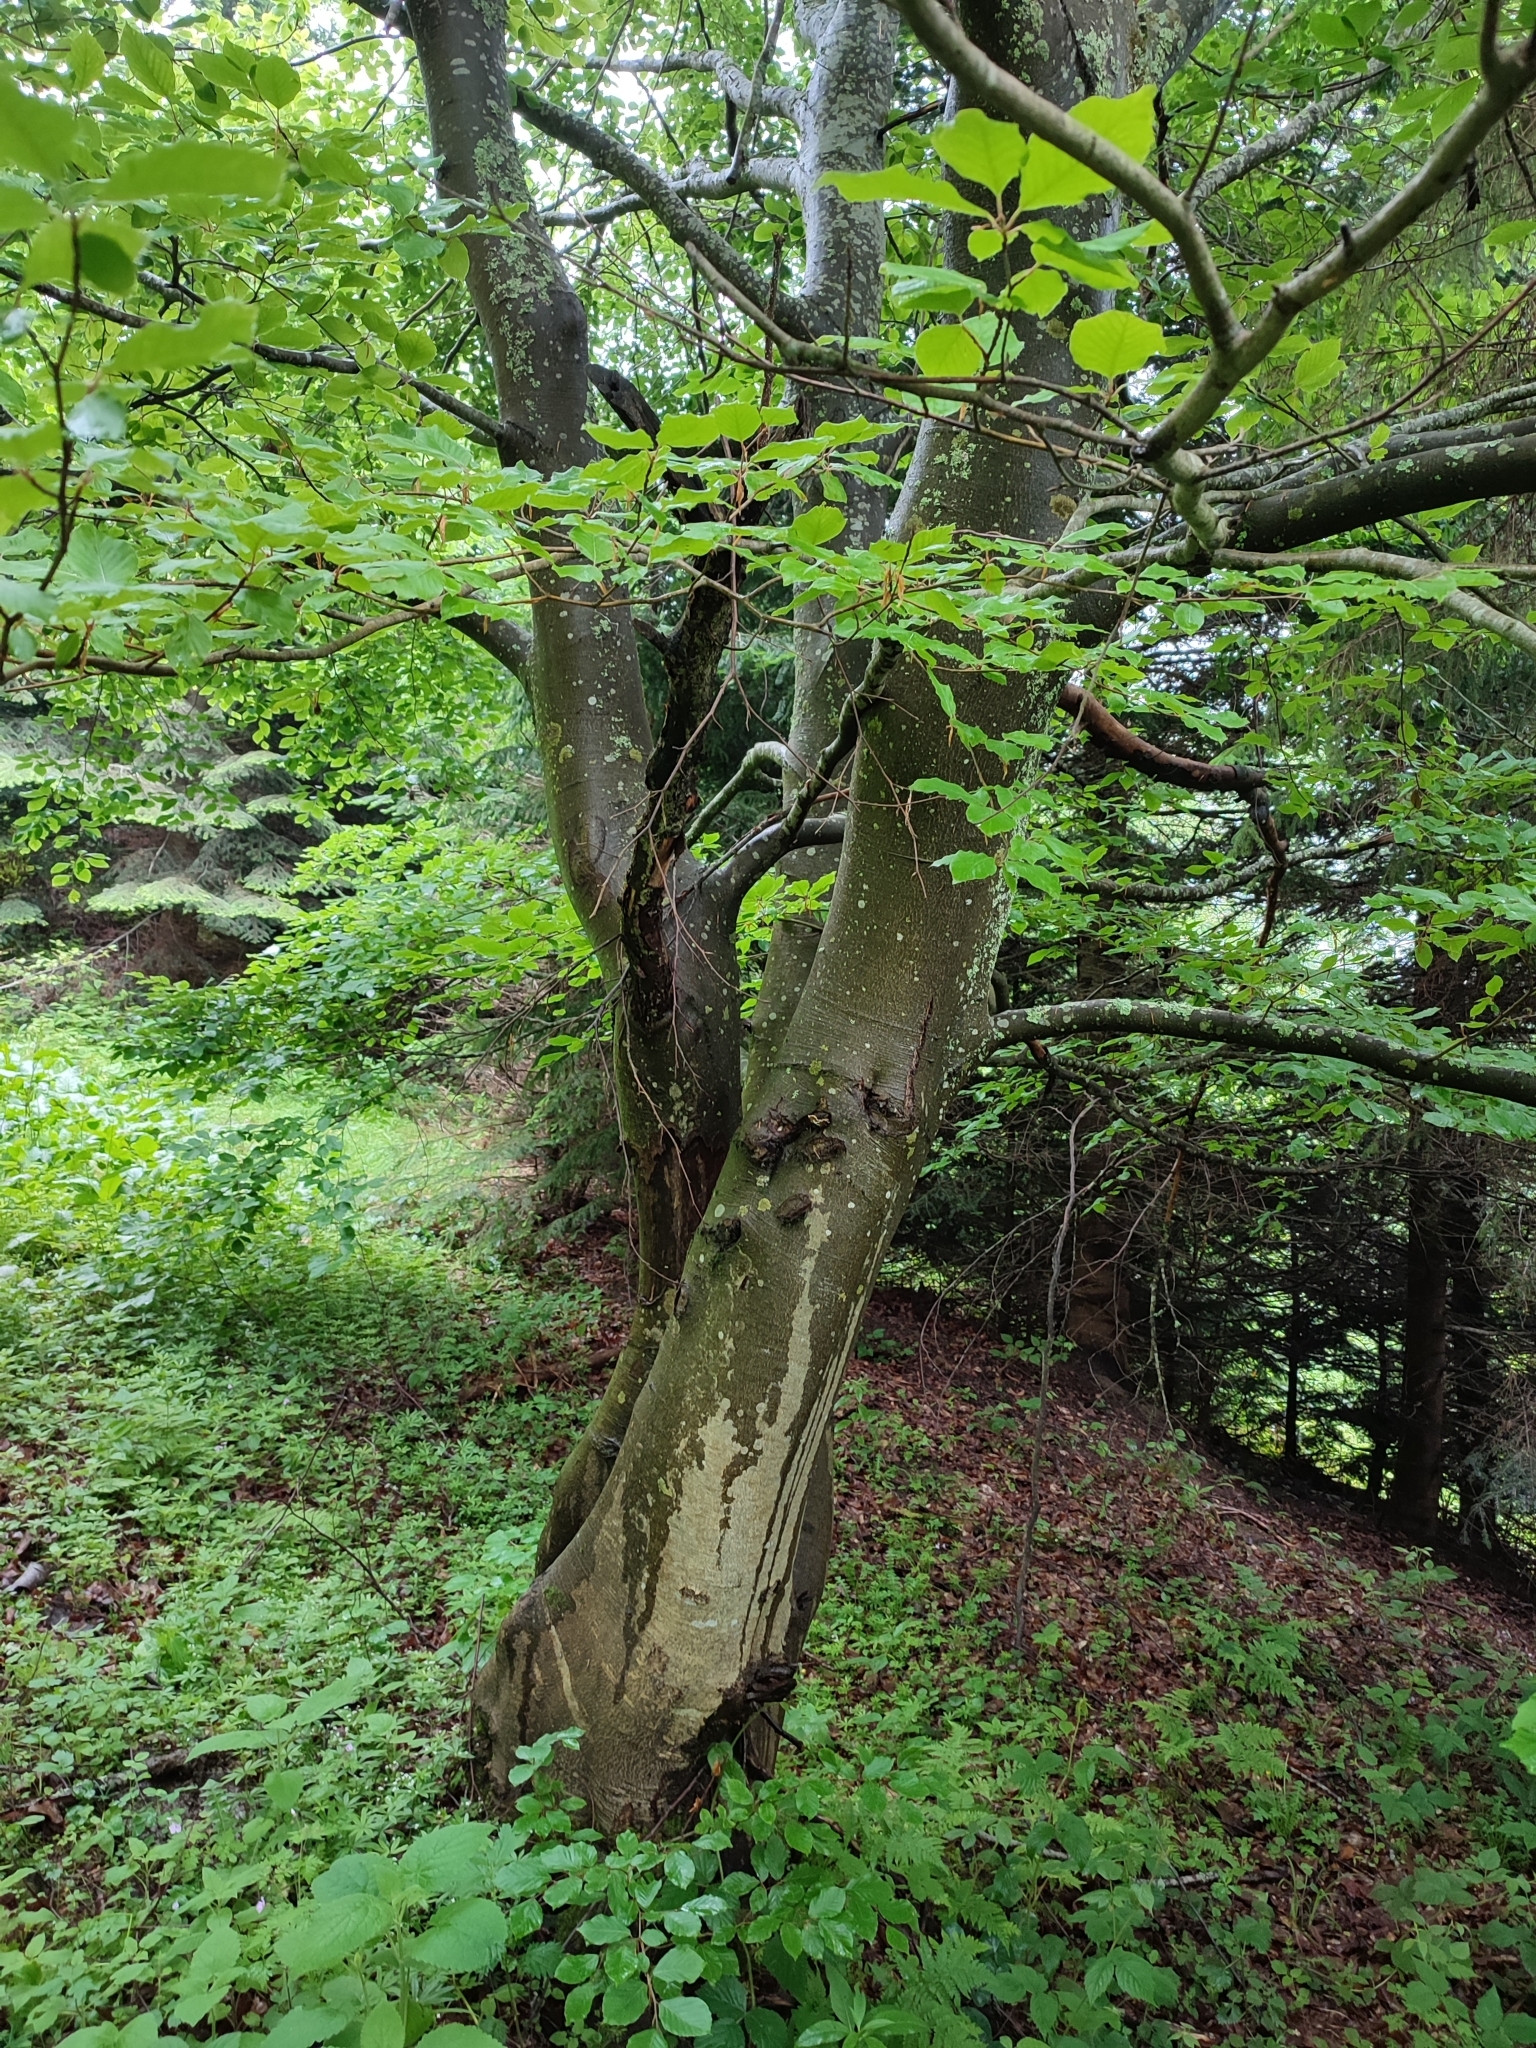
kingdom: Plantae
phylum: Tracheophyta
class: Magnoliopsida
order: Fagales
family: Fagaceae
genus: Fagus
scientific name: Fagus sylvatica
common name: Beech
